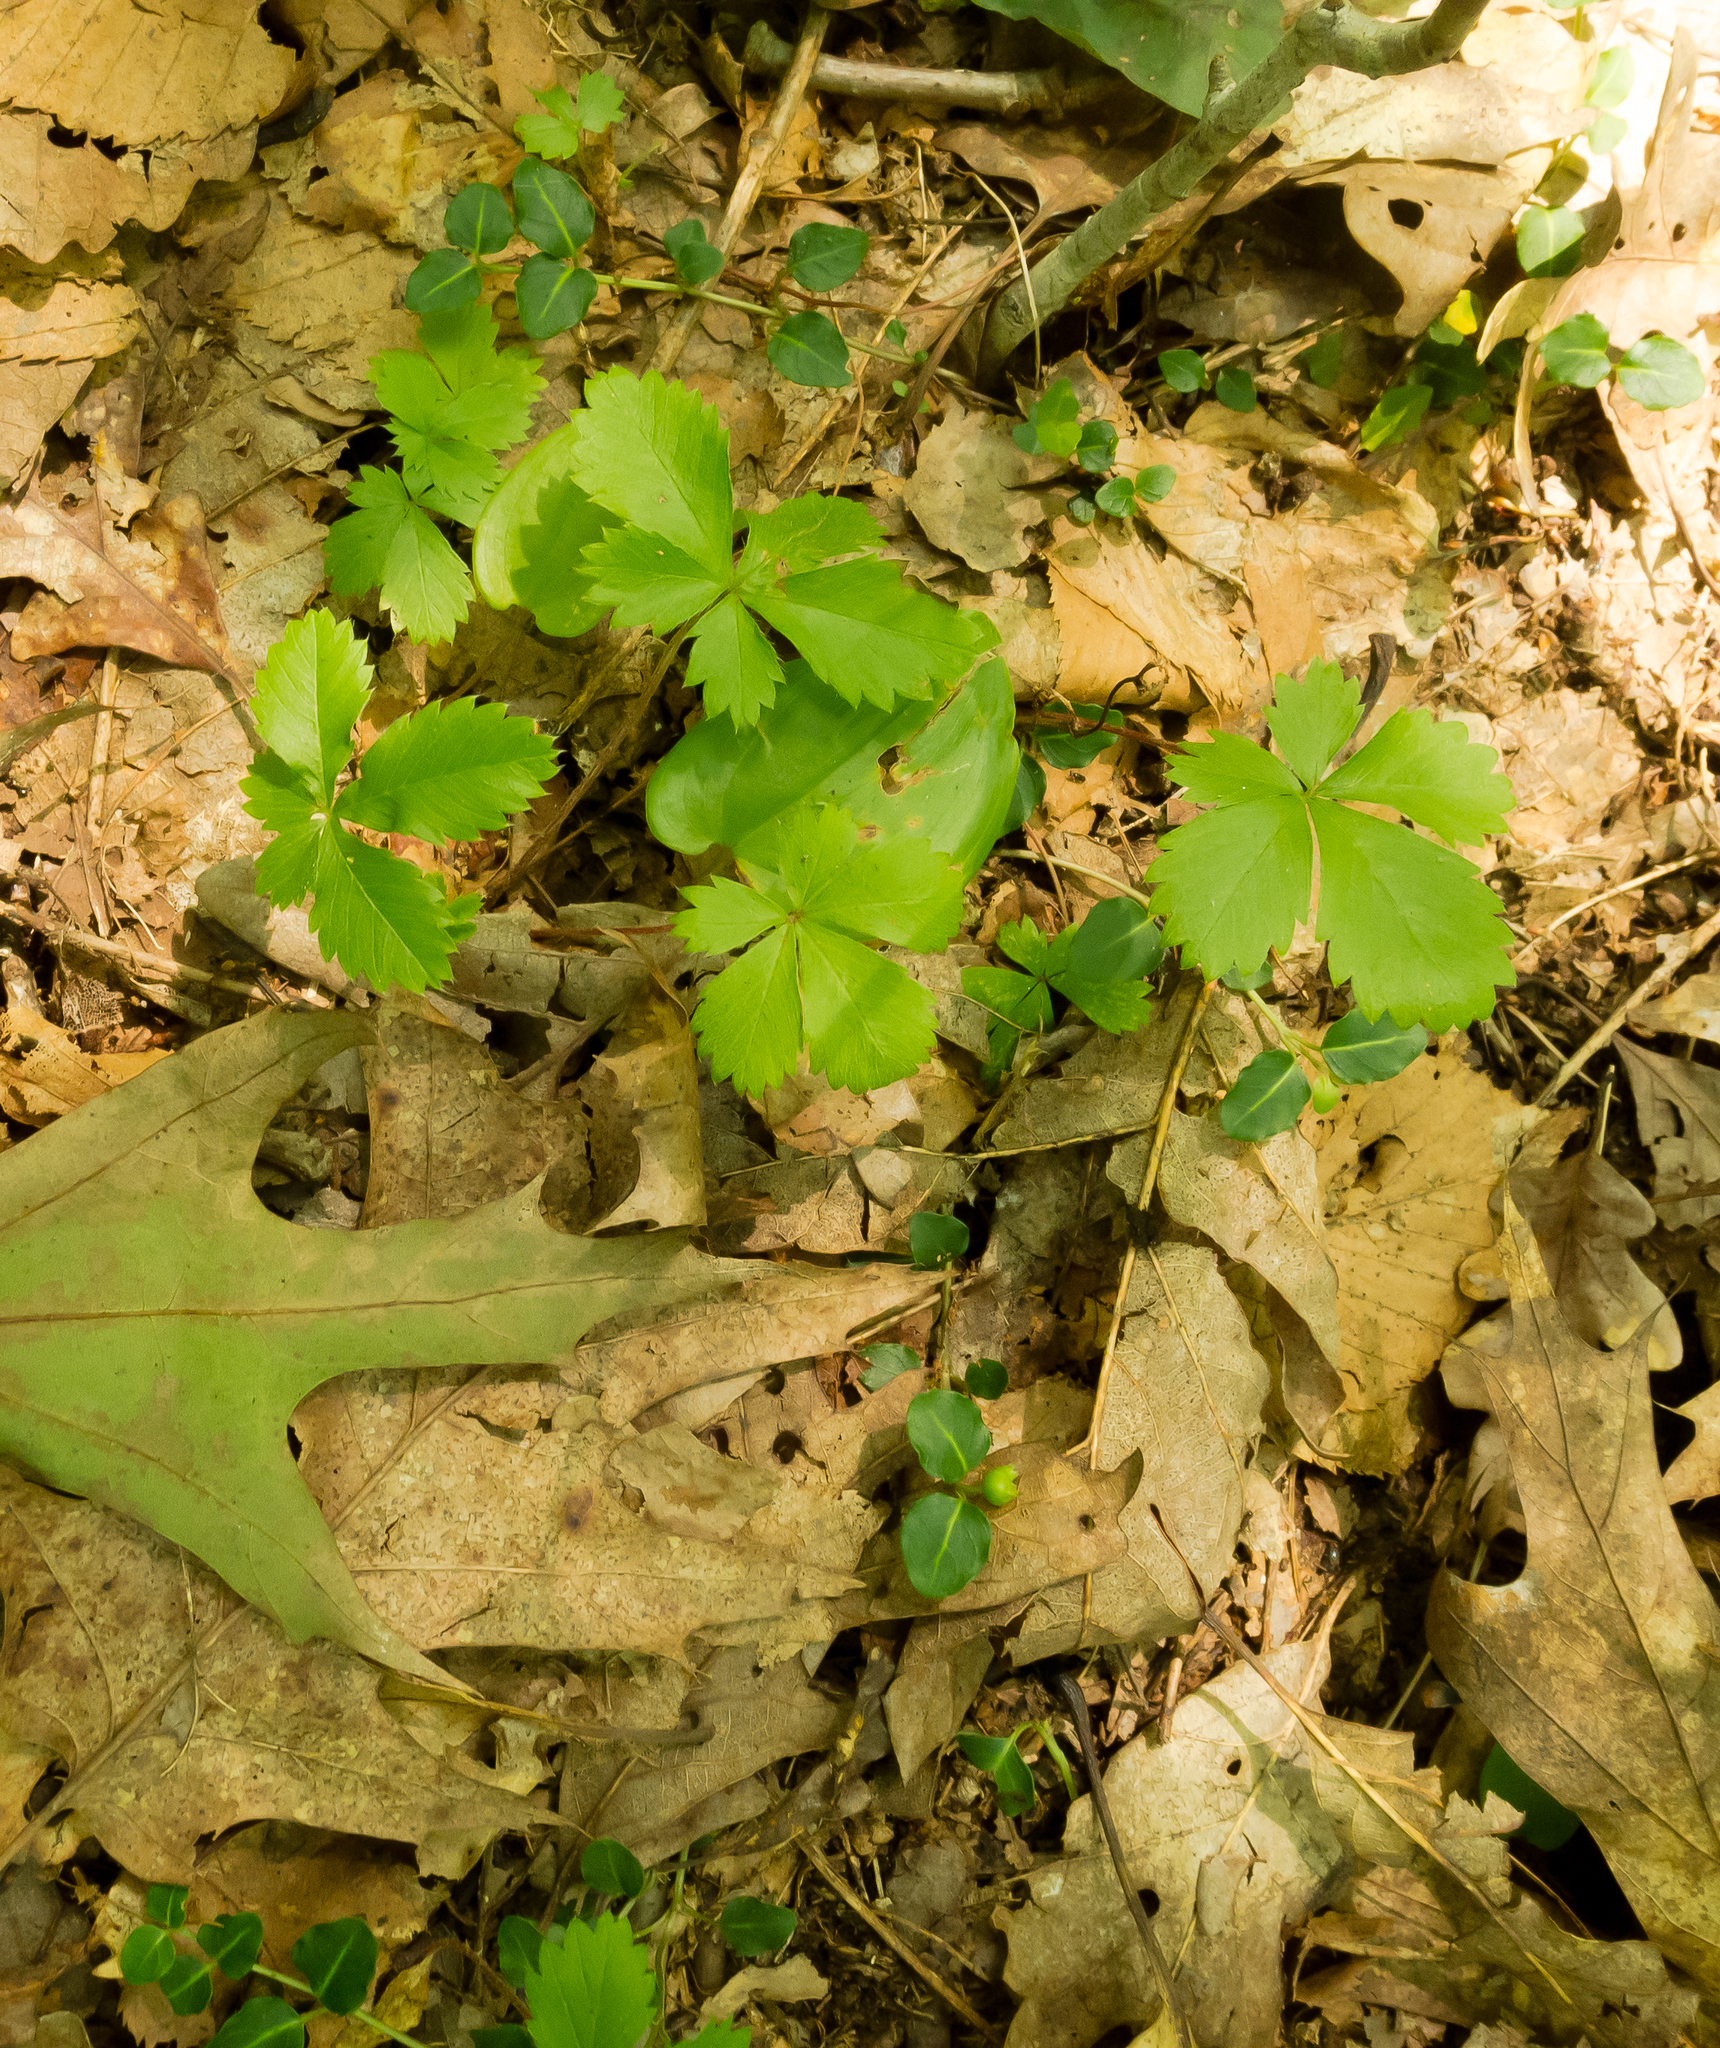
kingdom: Plantae
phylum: Tracheophyta
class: Magnoliopsida
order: Rosales
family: Rosaceae
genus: Potentilla
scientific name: Potentilla canadensis
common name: Canada cinquefoil
